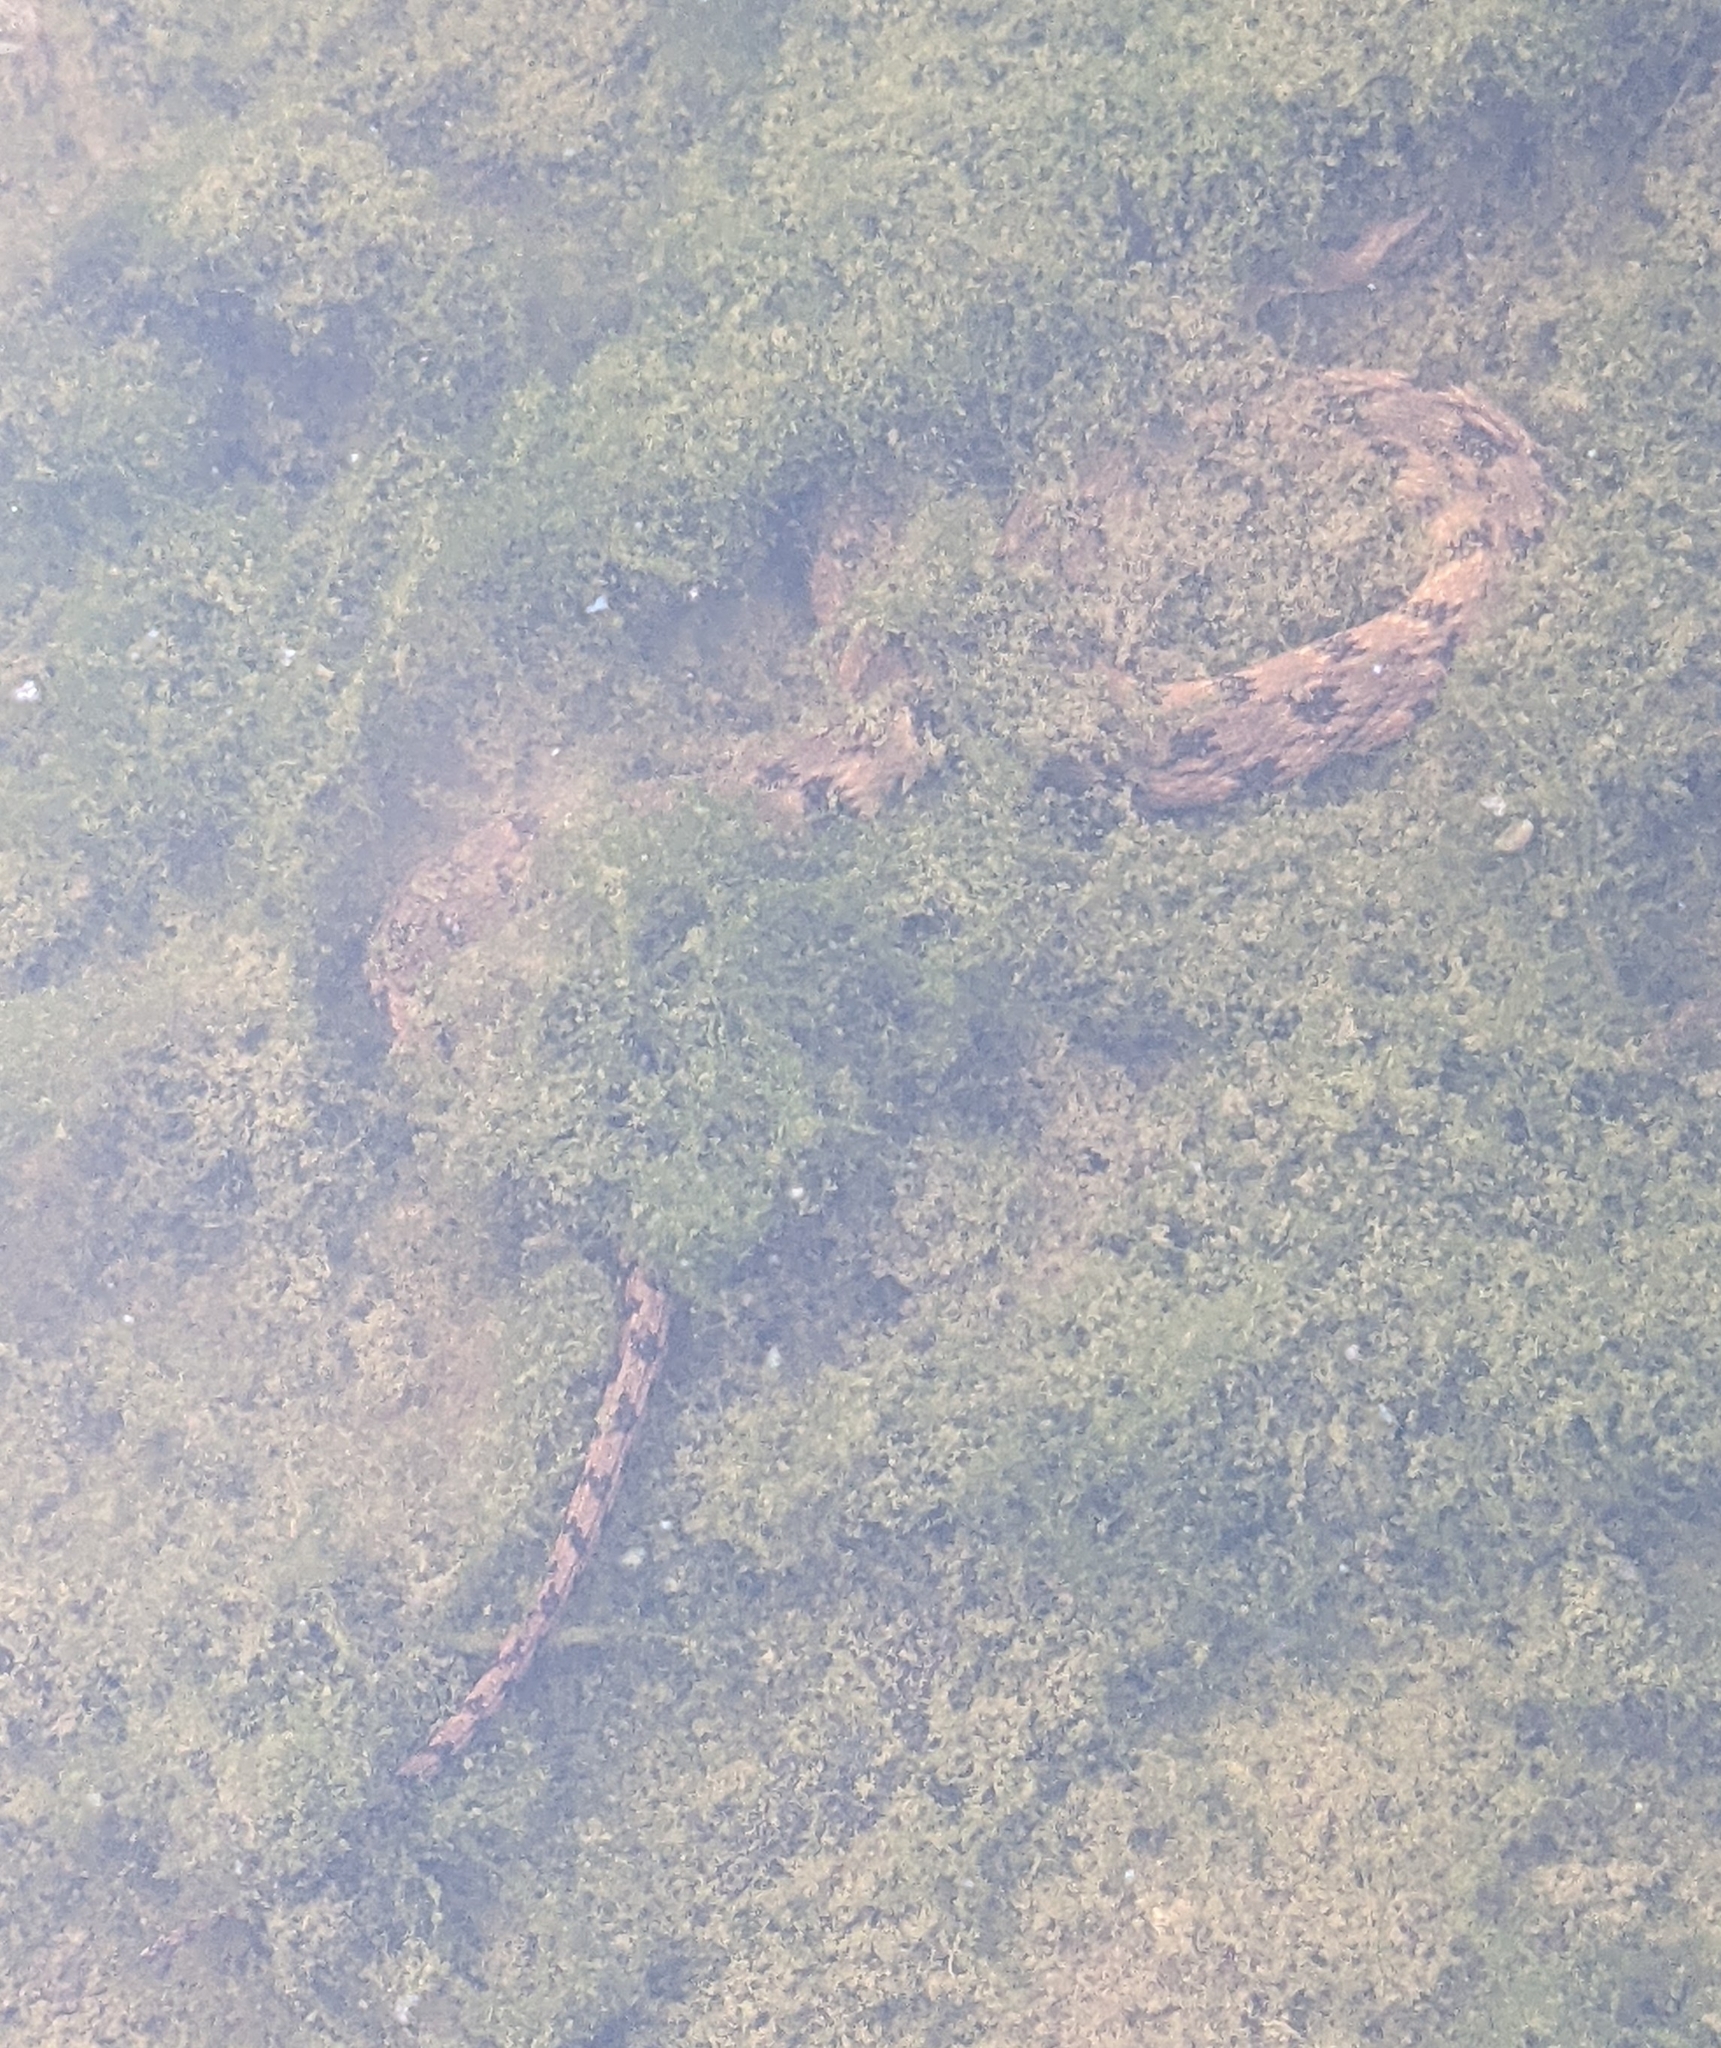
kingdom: Animalia
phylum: Chordata
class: Squamata
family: Colubridae
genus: Nerodia
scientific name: Nerodia rhombifer
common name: Diamondback water snake
